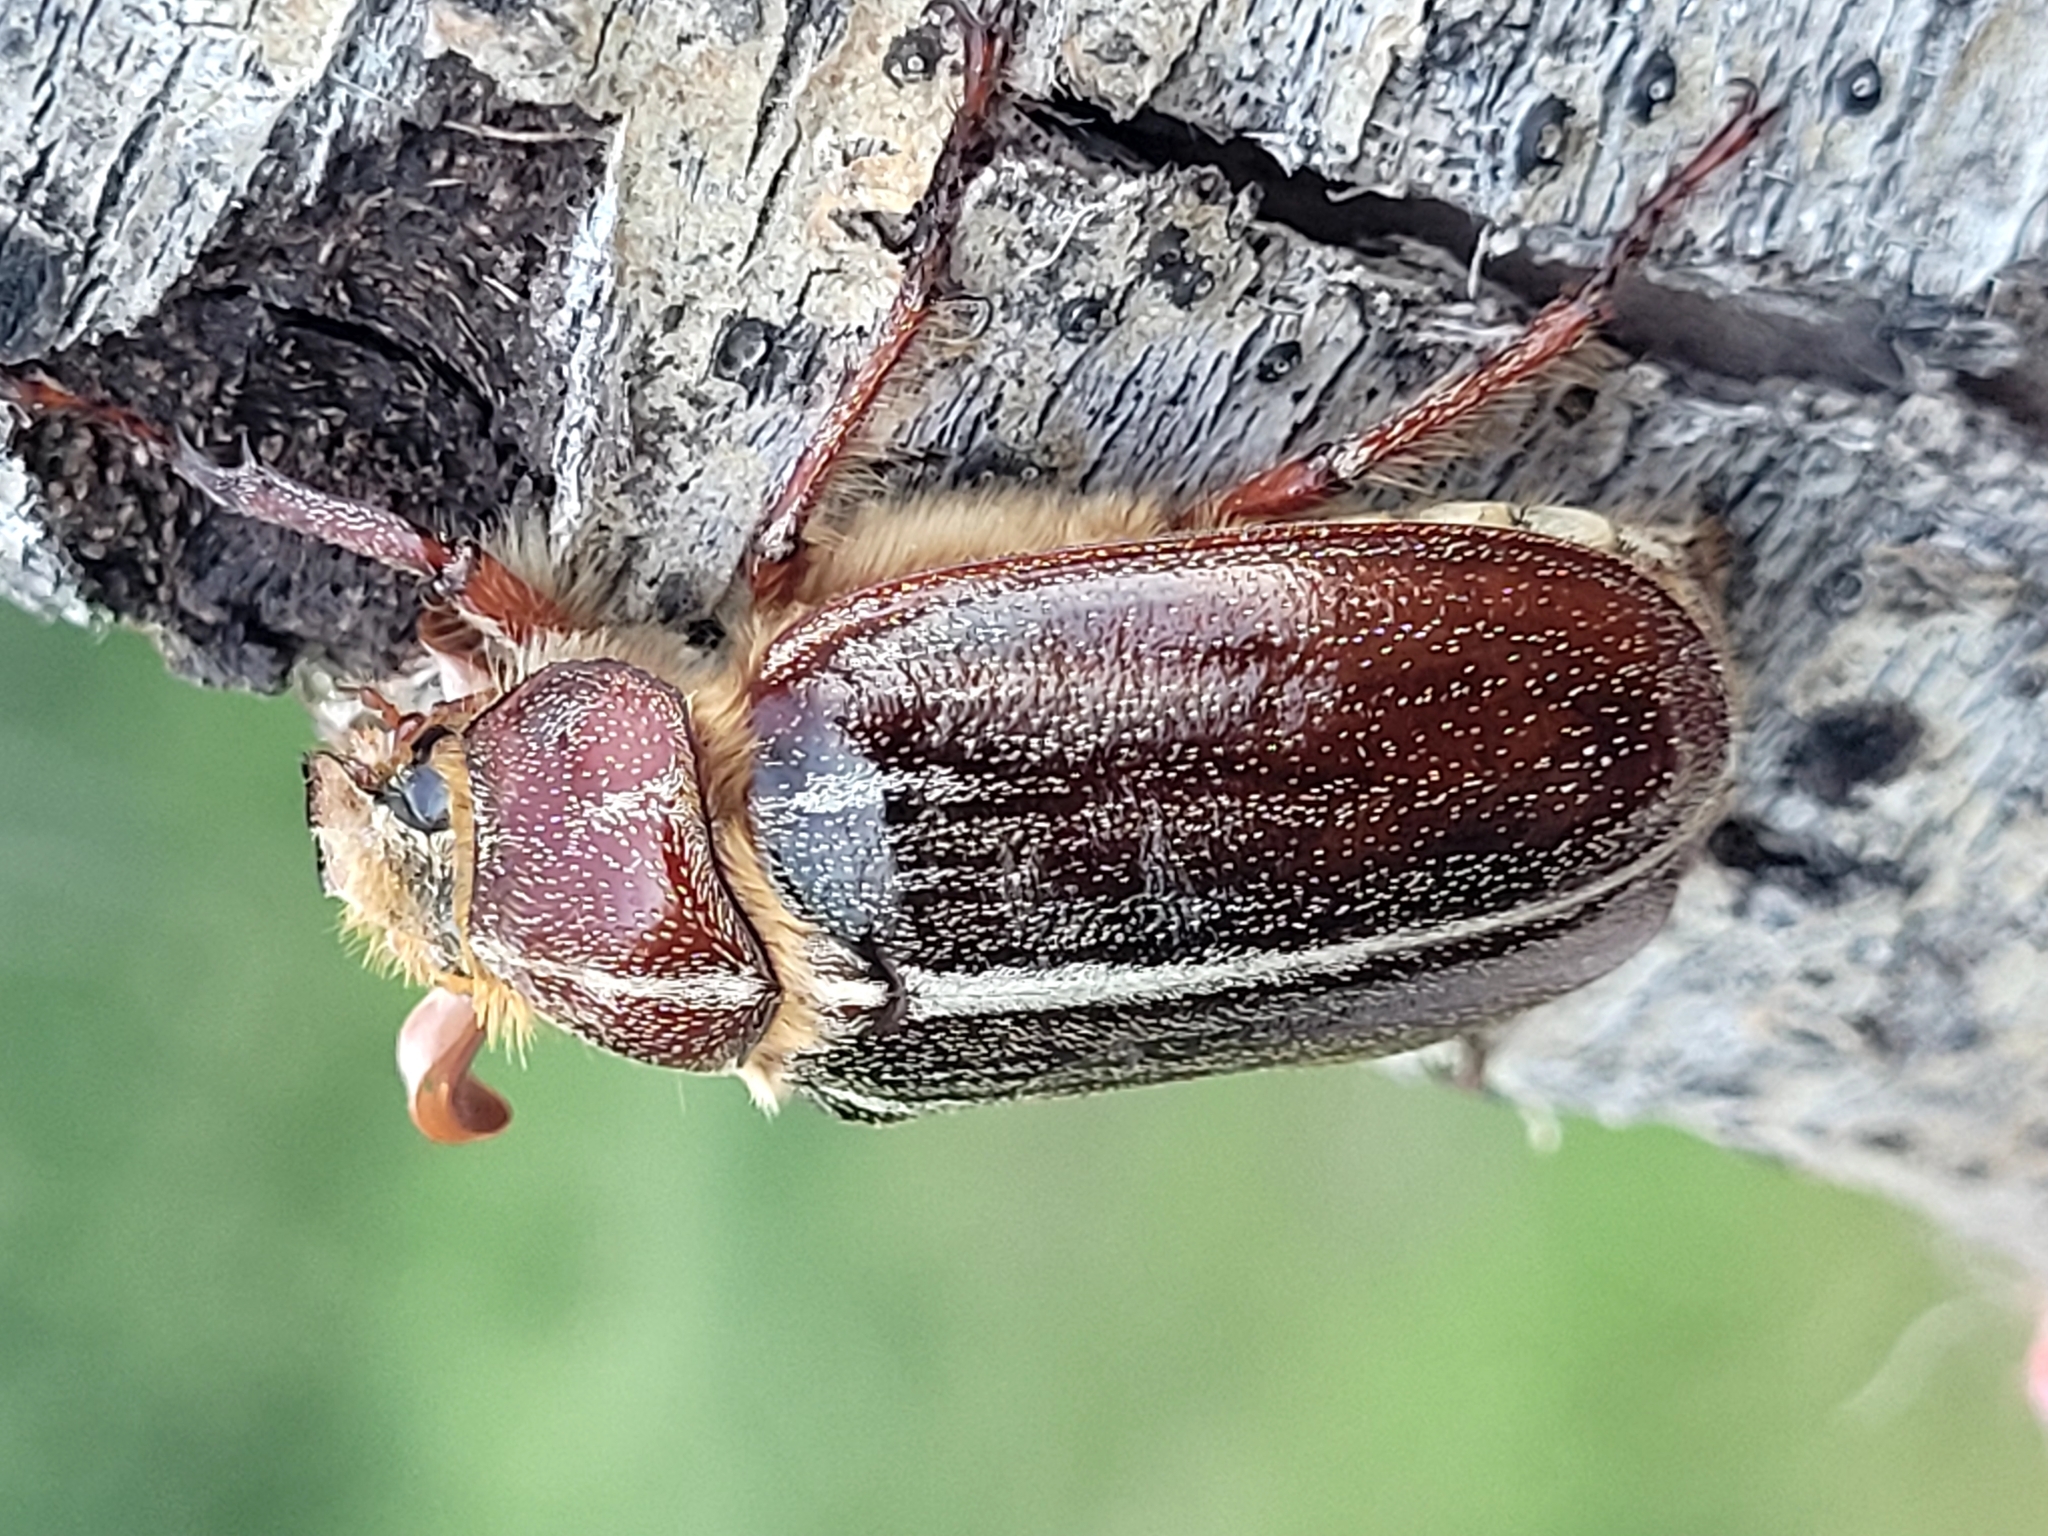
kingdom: Animalia
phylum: Arthropoda
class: Insecta
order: Coleoptera
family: Scarabaeidae
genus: Polyphylla
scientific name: Polyphylla hammondi
